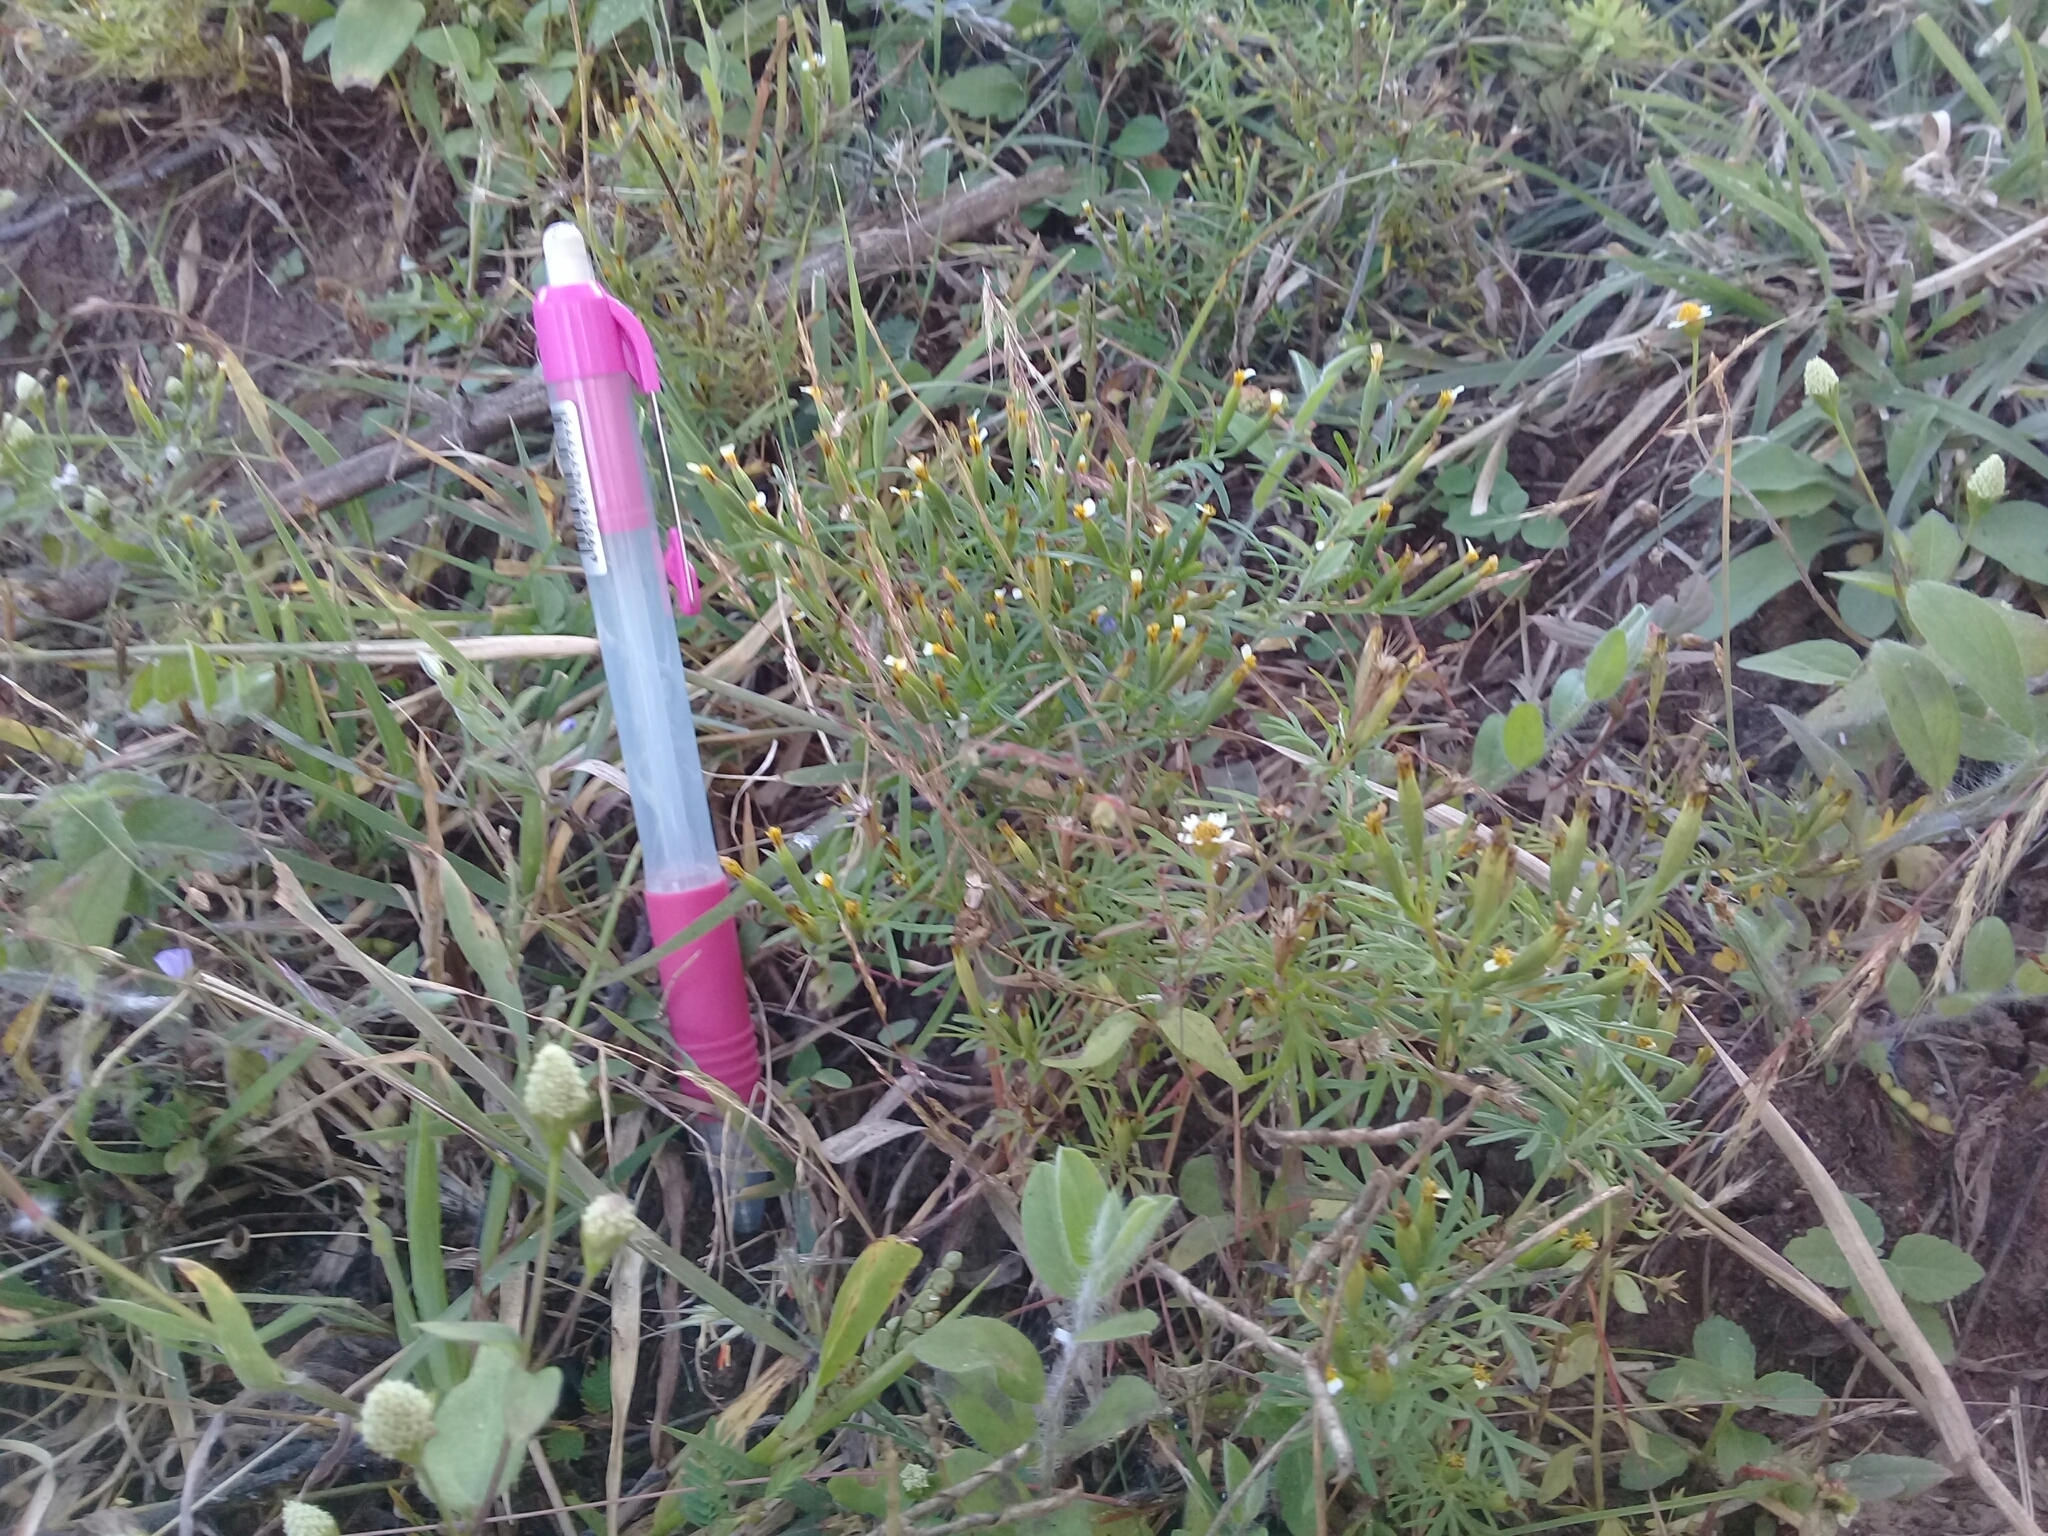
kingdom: Plantae
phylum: Tracheophyta
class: Magnoliopsida
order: Asterales
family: Asteraceae
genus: Tagetes
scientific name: Tagetes micrantha
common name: Licorice marigold
